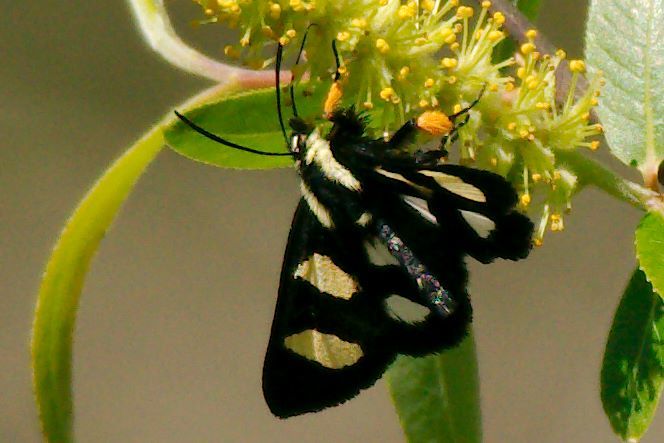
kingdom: Animalia
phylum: Arthropoda
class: Insecta
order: Lepidoptera
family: Noctuidae
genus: Alypia
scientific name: Alypia wittfeldii
